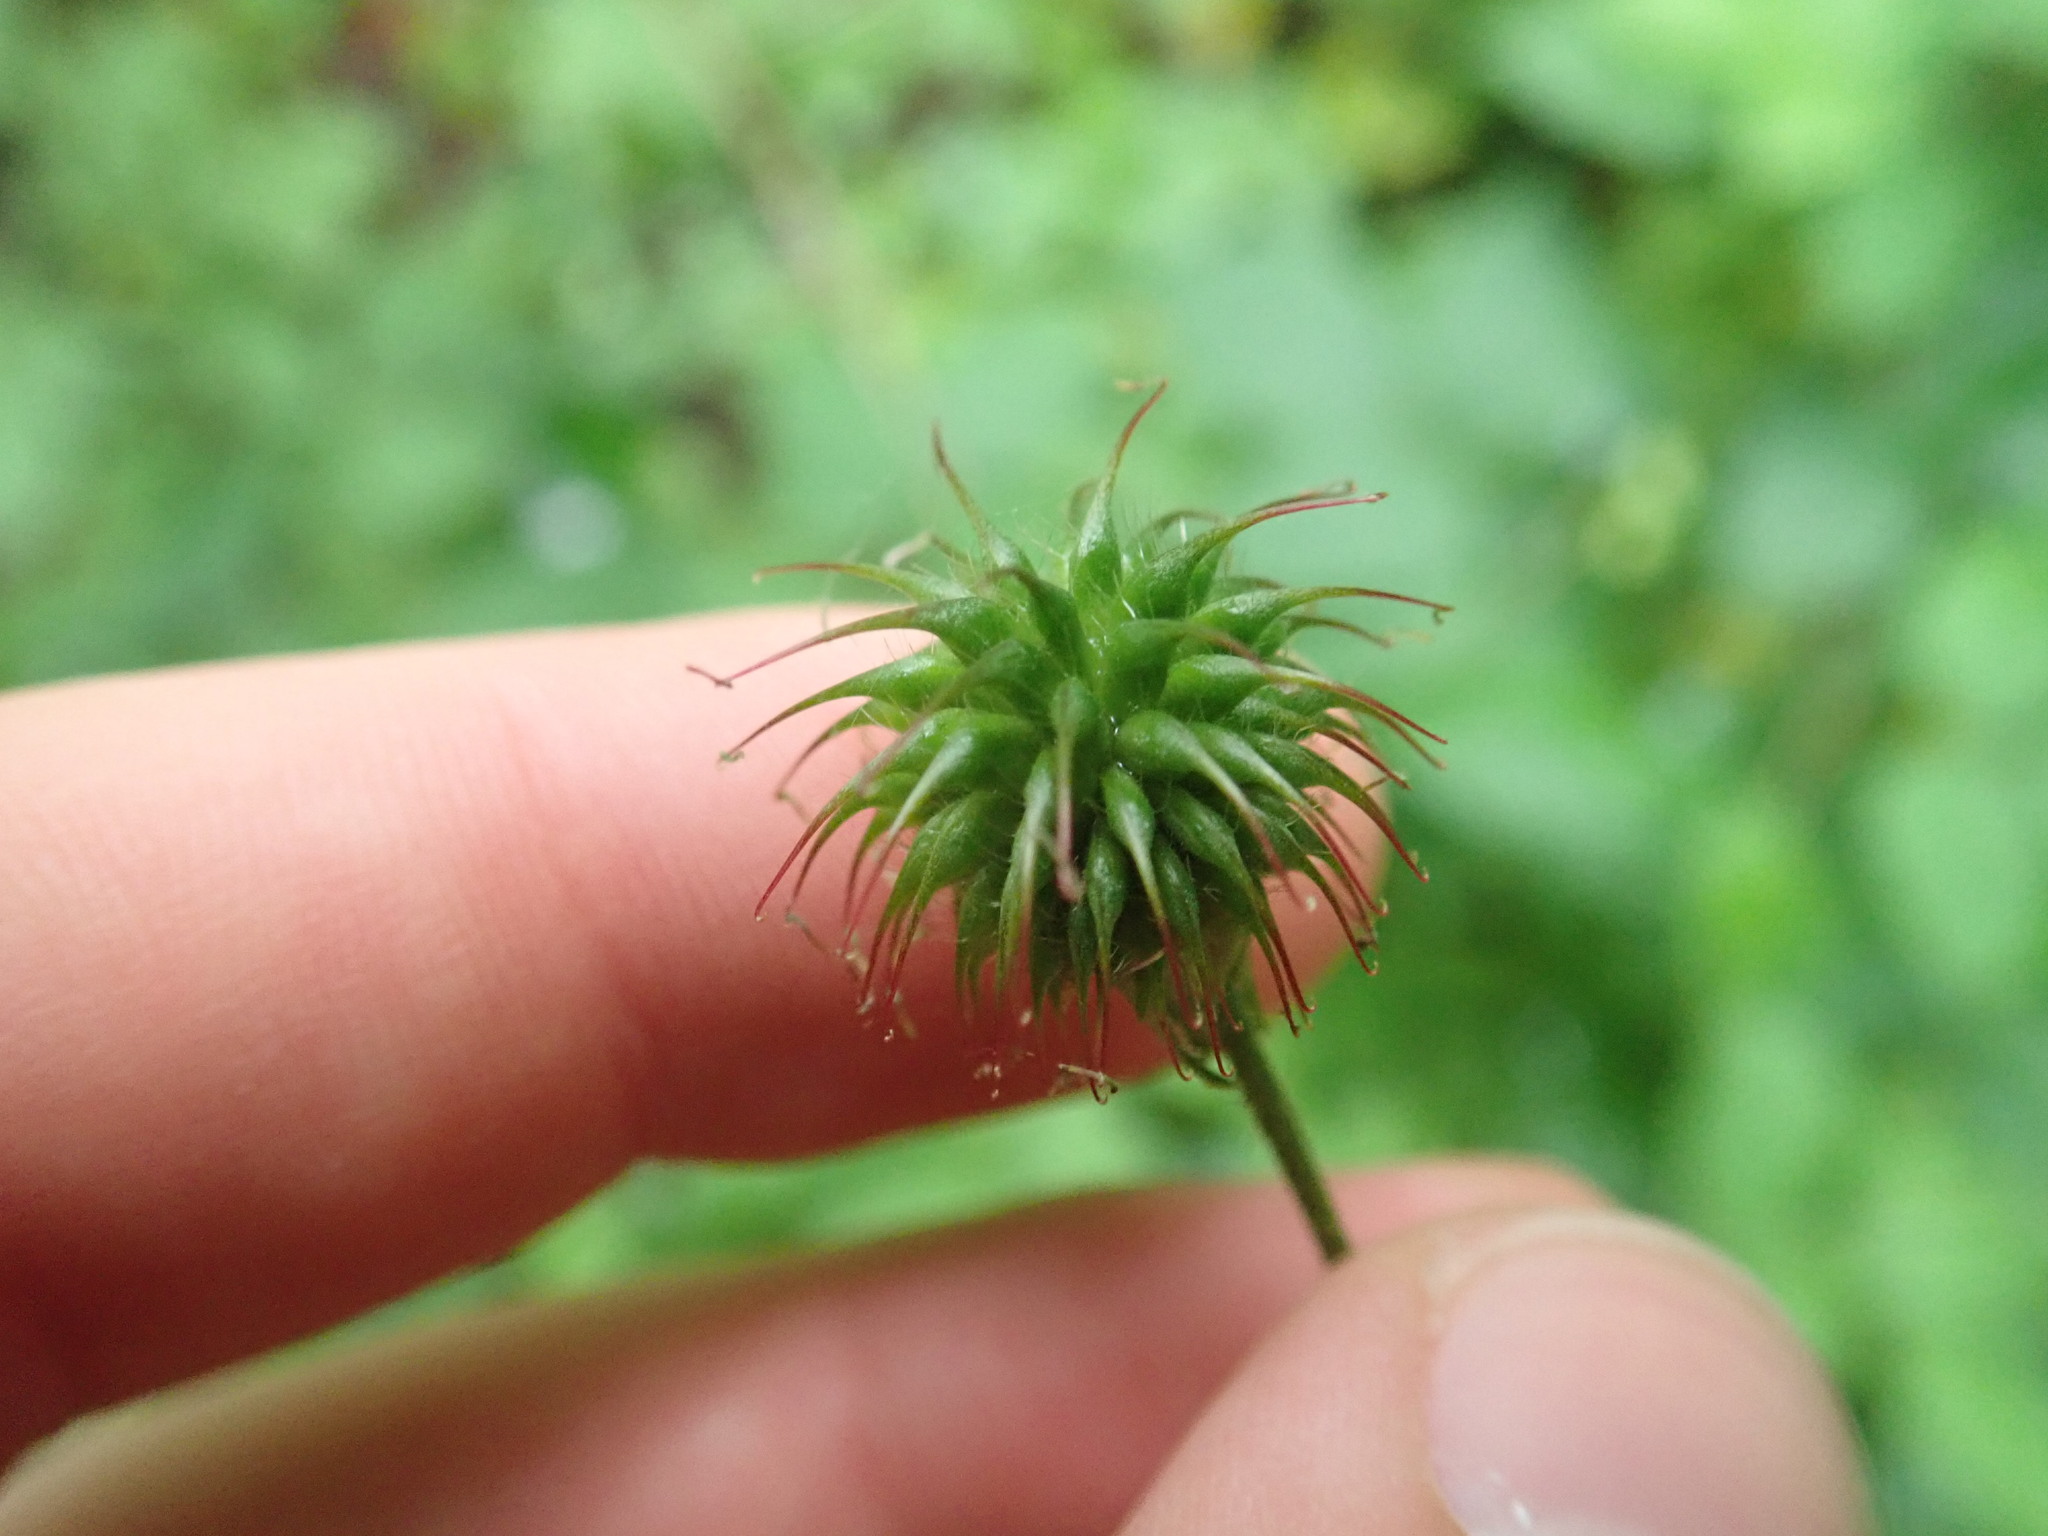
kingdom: Plantae
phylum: Tracheophyta
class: Magnoliopsida
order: Rosales
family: Rosaceae
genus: Geum
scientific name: Geum urbanum
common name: Wood avens
